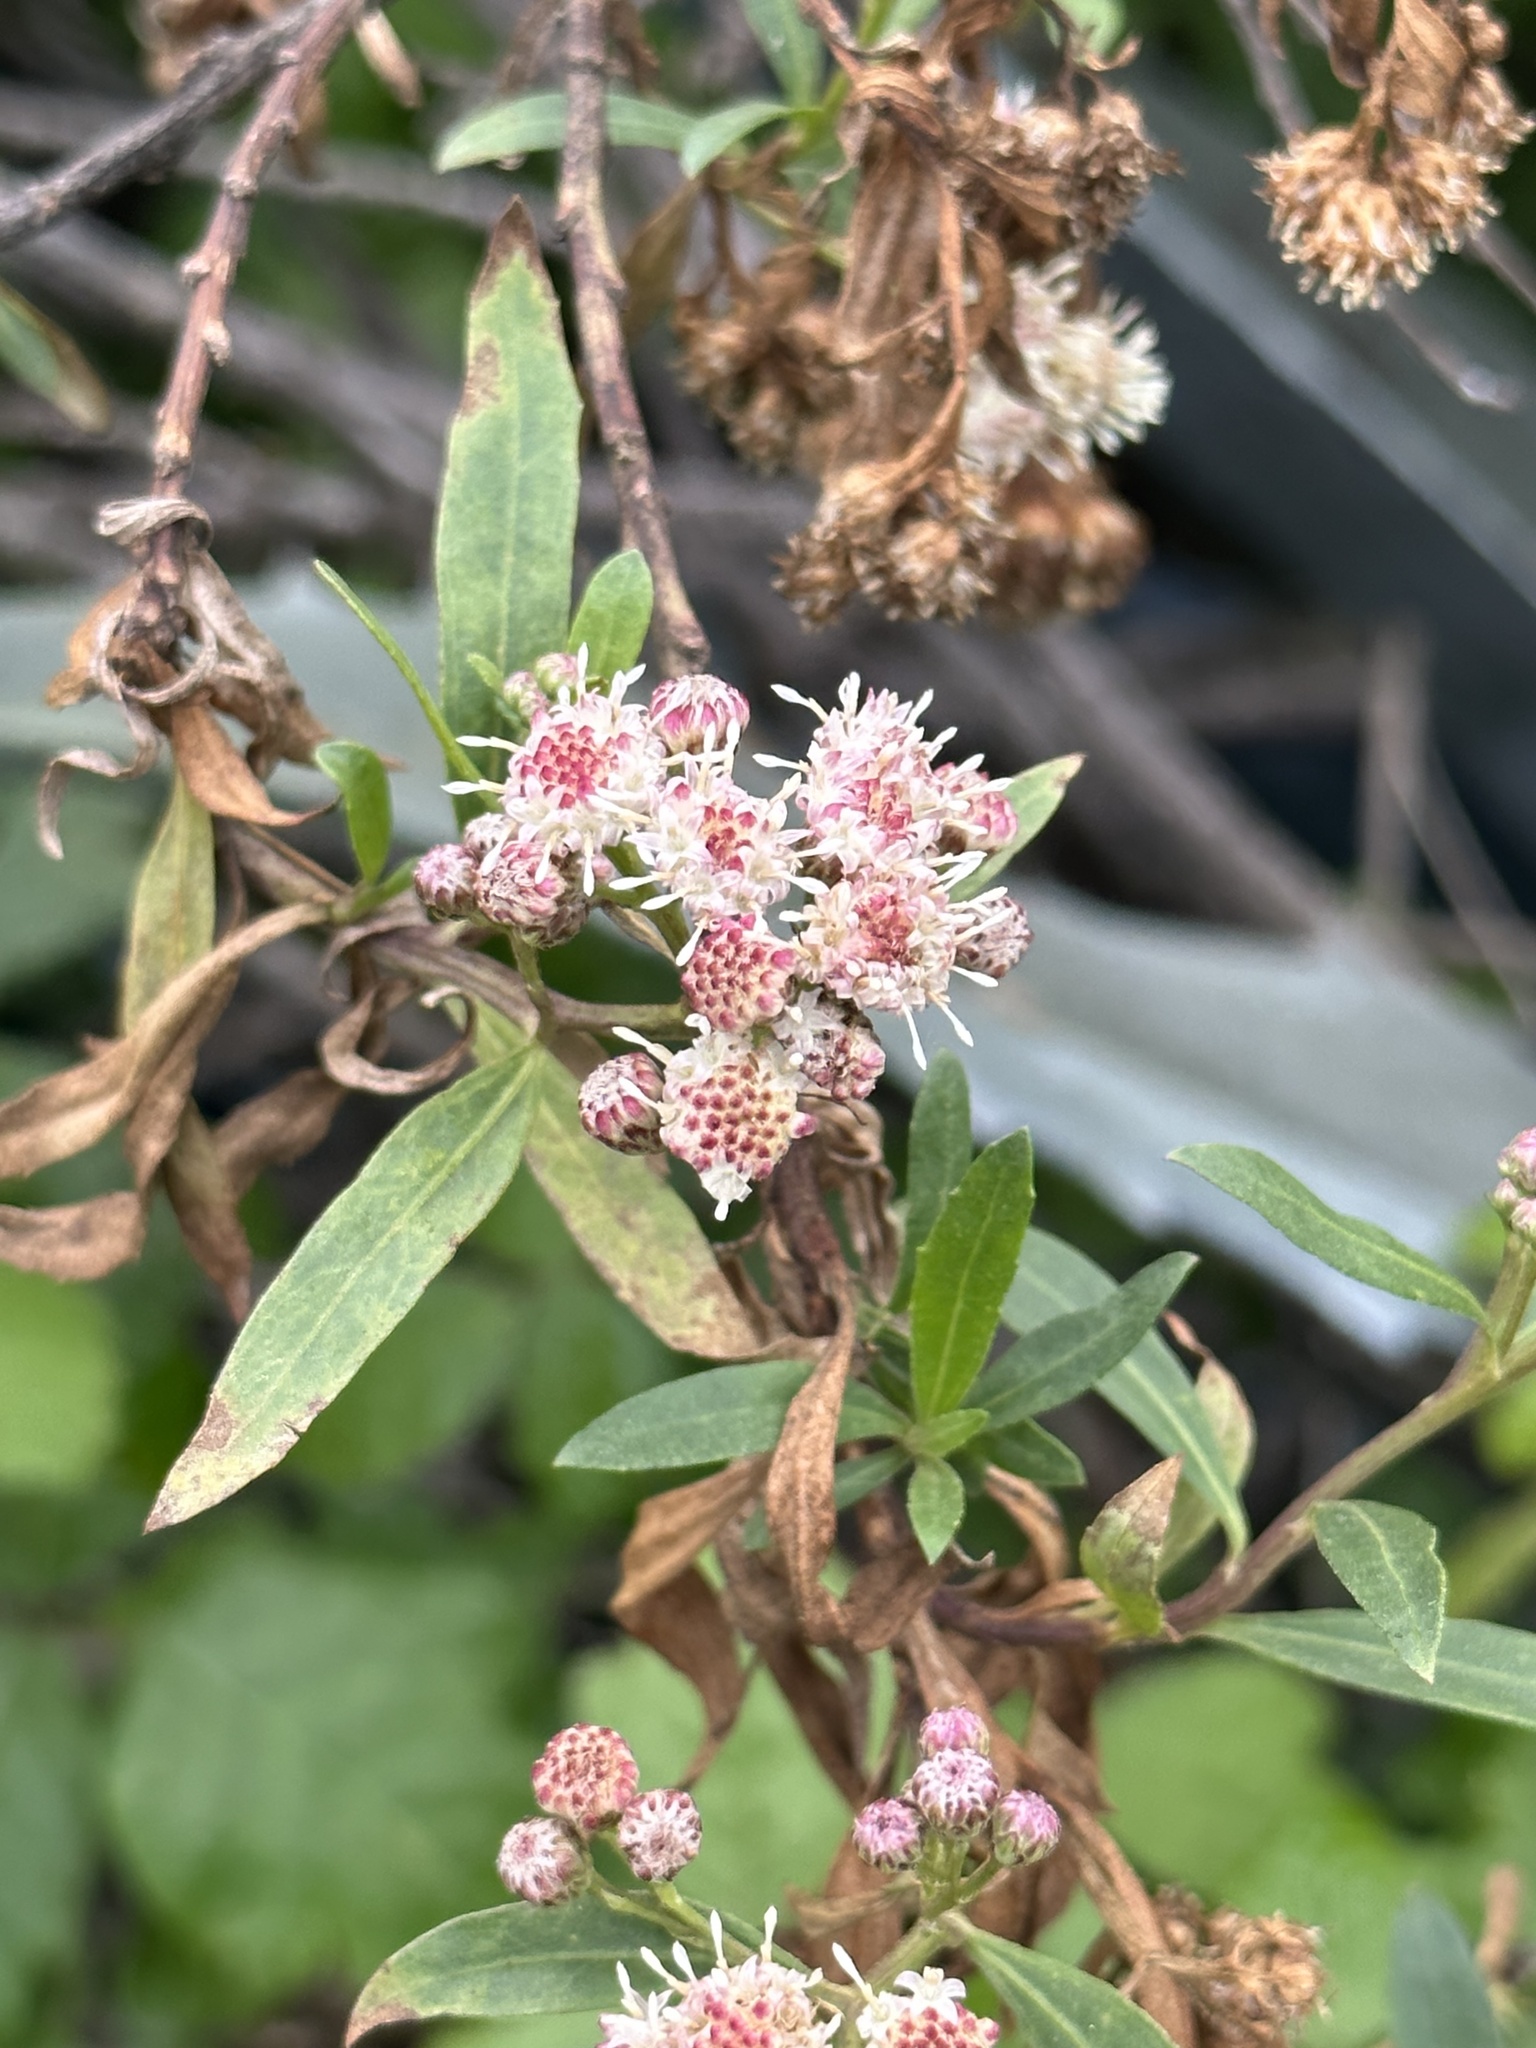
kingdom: Plantae
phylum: Tracheophyta
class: Magnoliopsida
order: Asterales
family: Asteraceae
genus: Baccharis
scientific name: Baccharis salicifolia
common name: Sticky baccharis
